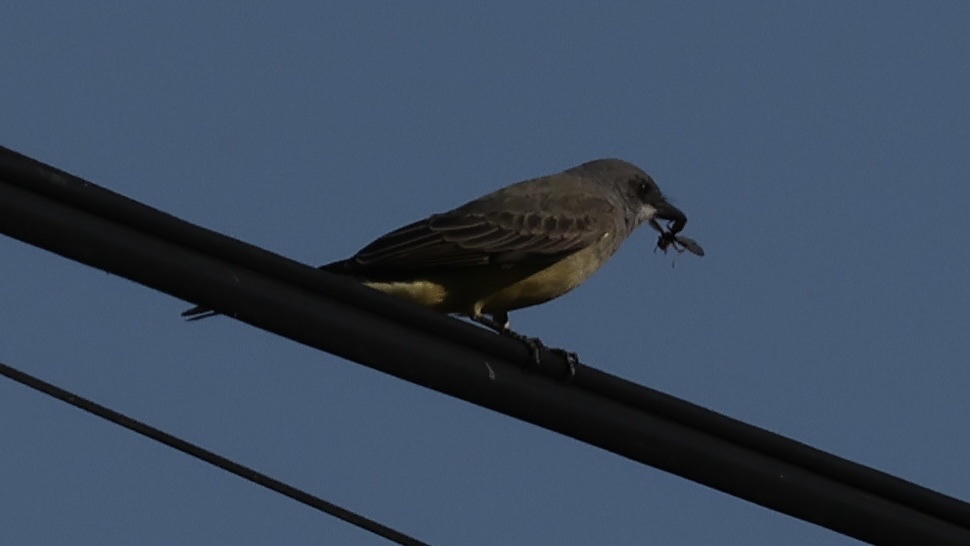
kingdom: Animalia
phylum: Chordata
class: Aves
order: Passeriformes
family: Tyrannidae
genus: Tyrannus
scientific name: Tyrannus vociferans
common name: Cassin's kingbird
